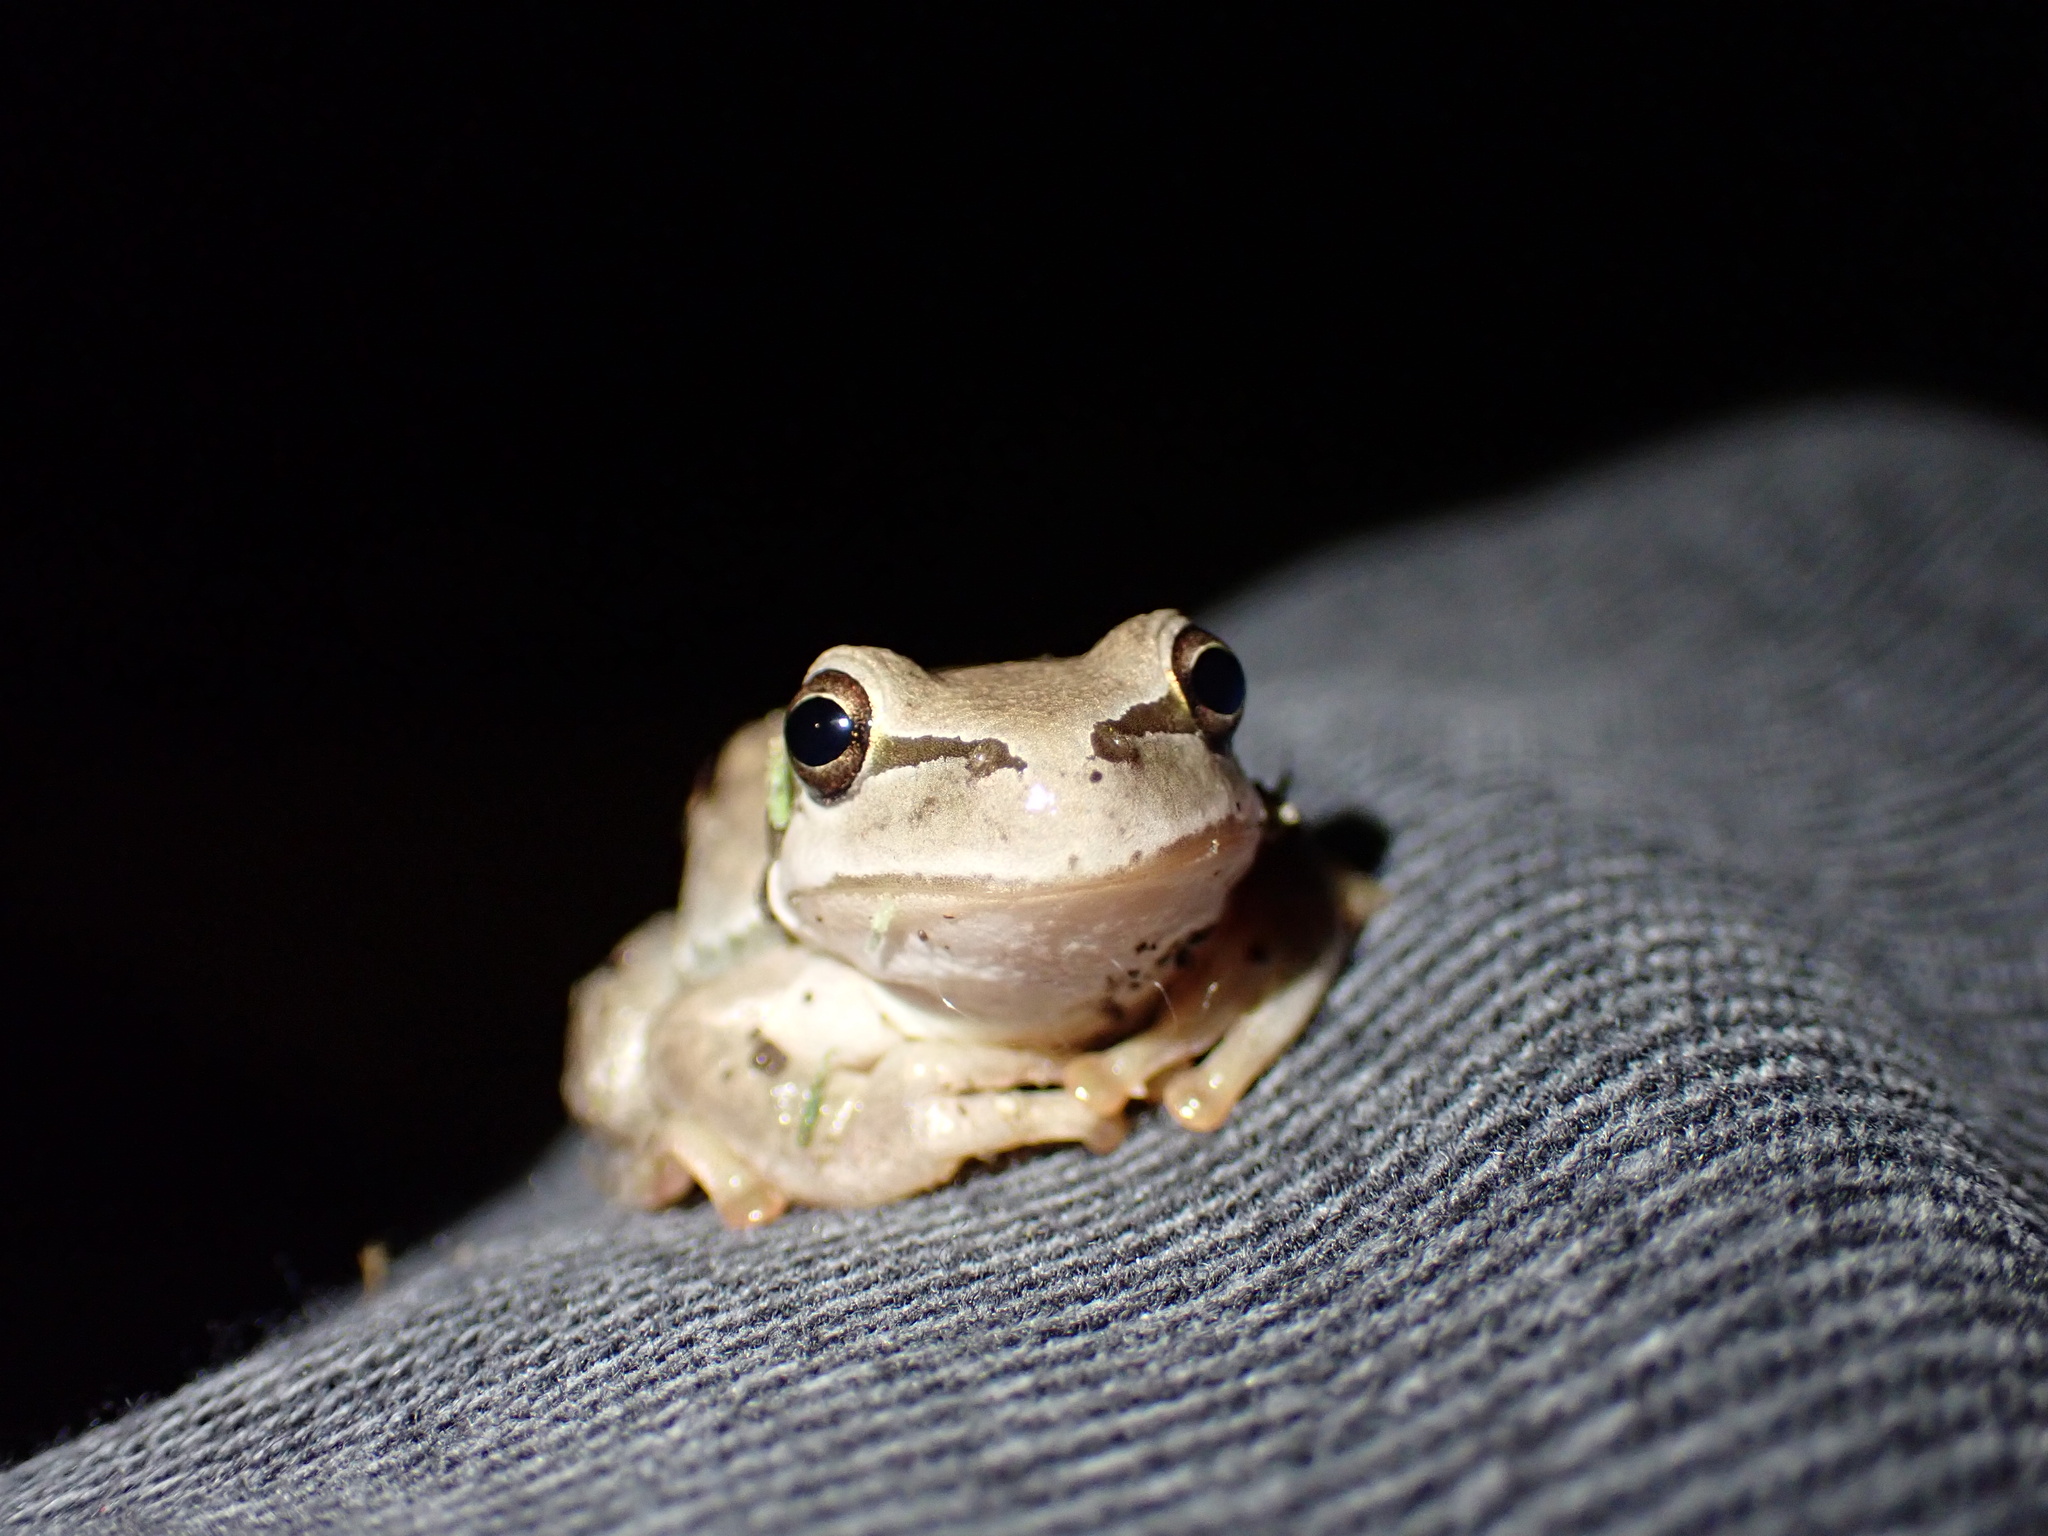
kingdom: Animalia
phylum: Chordata
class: Amphibia
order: Anura
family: Hylidae
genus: Hyla
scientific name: Hyla savignyi
